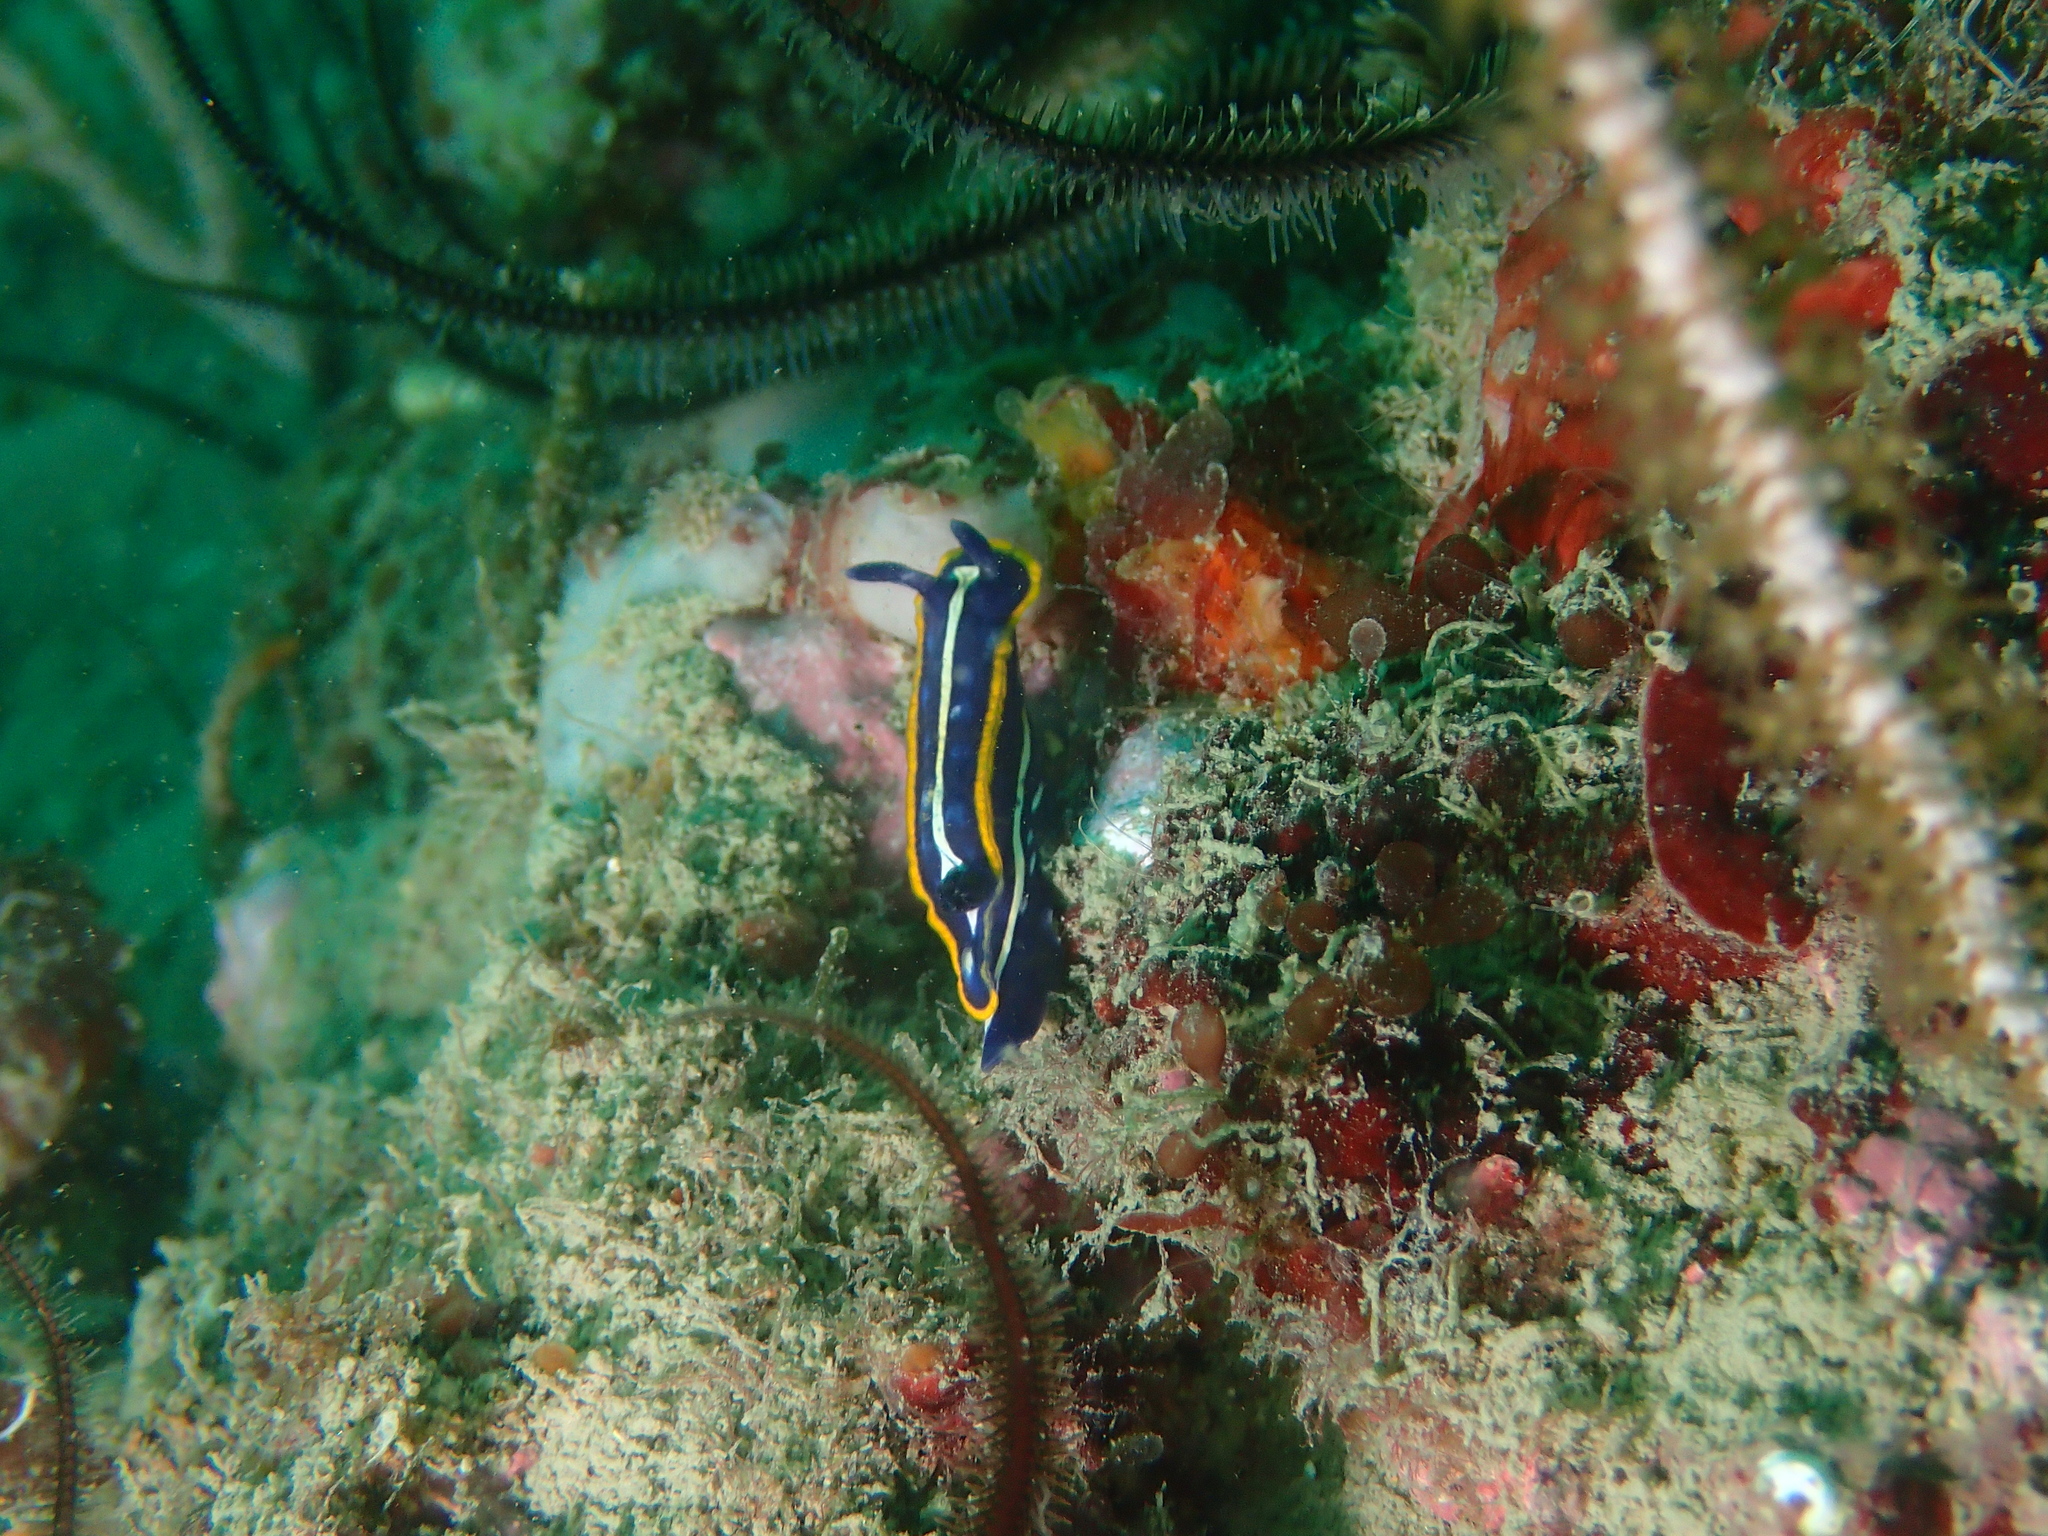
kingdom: Animalia
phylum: Mollusca
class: Gastropoda
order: Nudibranchia
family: Chromodorididae
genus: Felimare
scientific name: Felimare fontandraui
